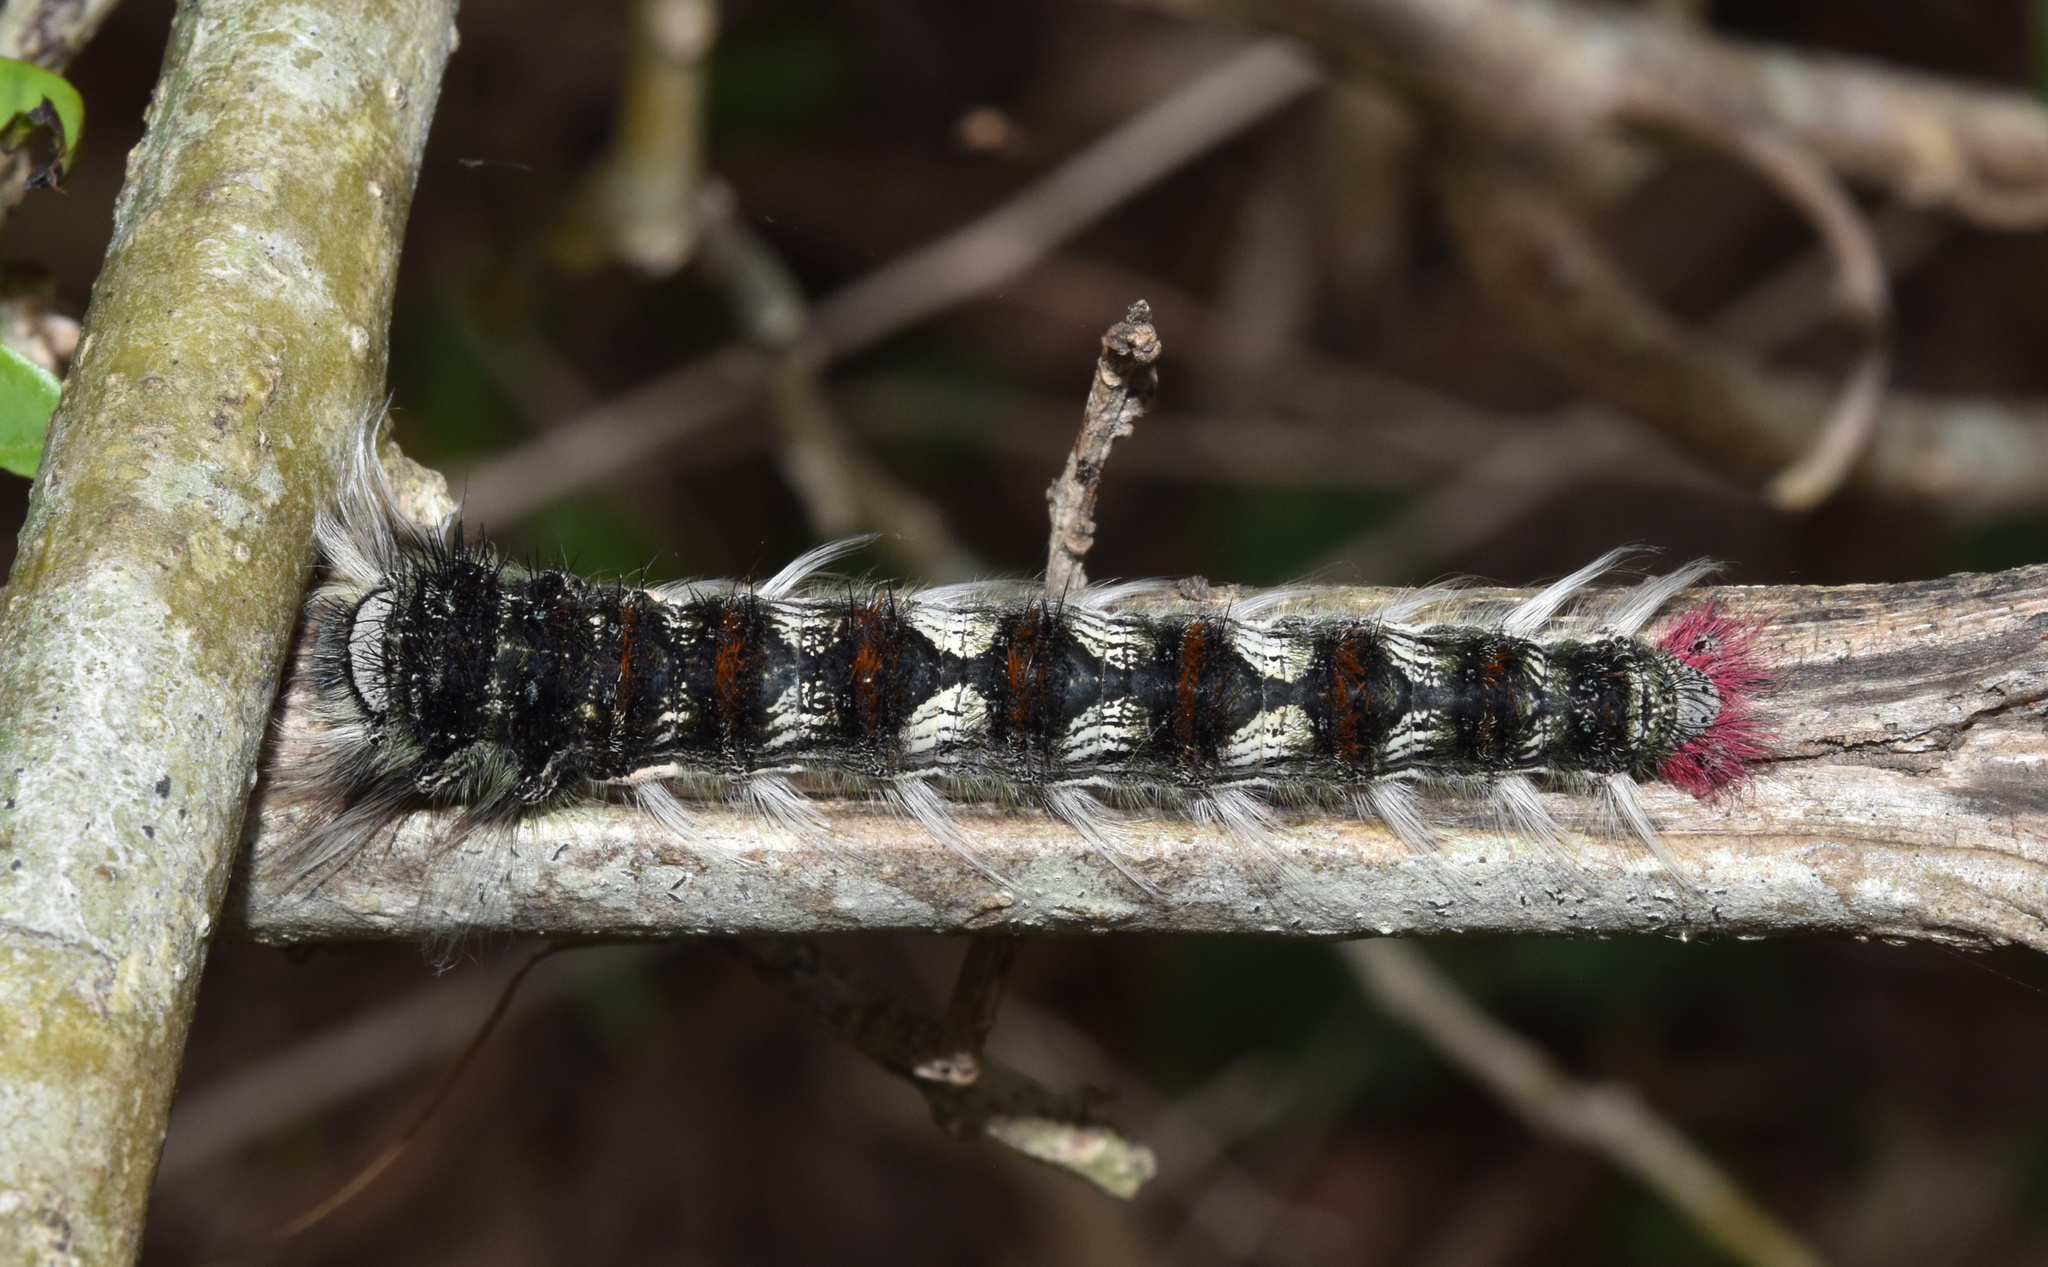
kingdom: Animalia
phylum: Arthropoda
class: Insecta
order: Lepidoptera
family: Lasiocampidae
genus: Catalebeda
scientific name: Catalebeda cuneilinea
